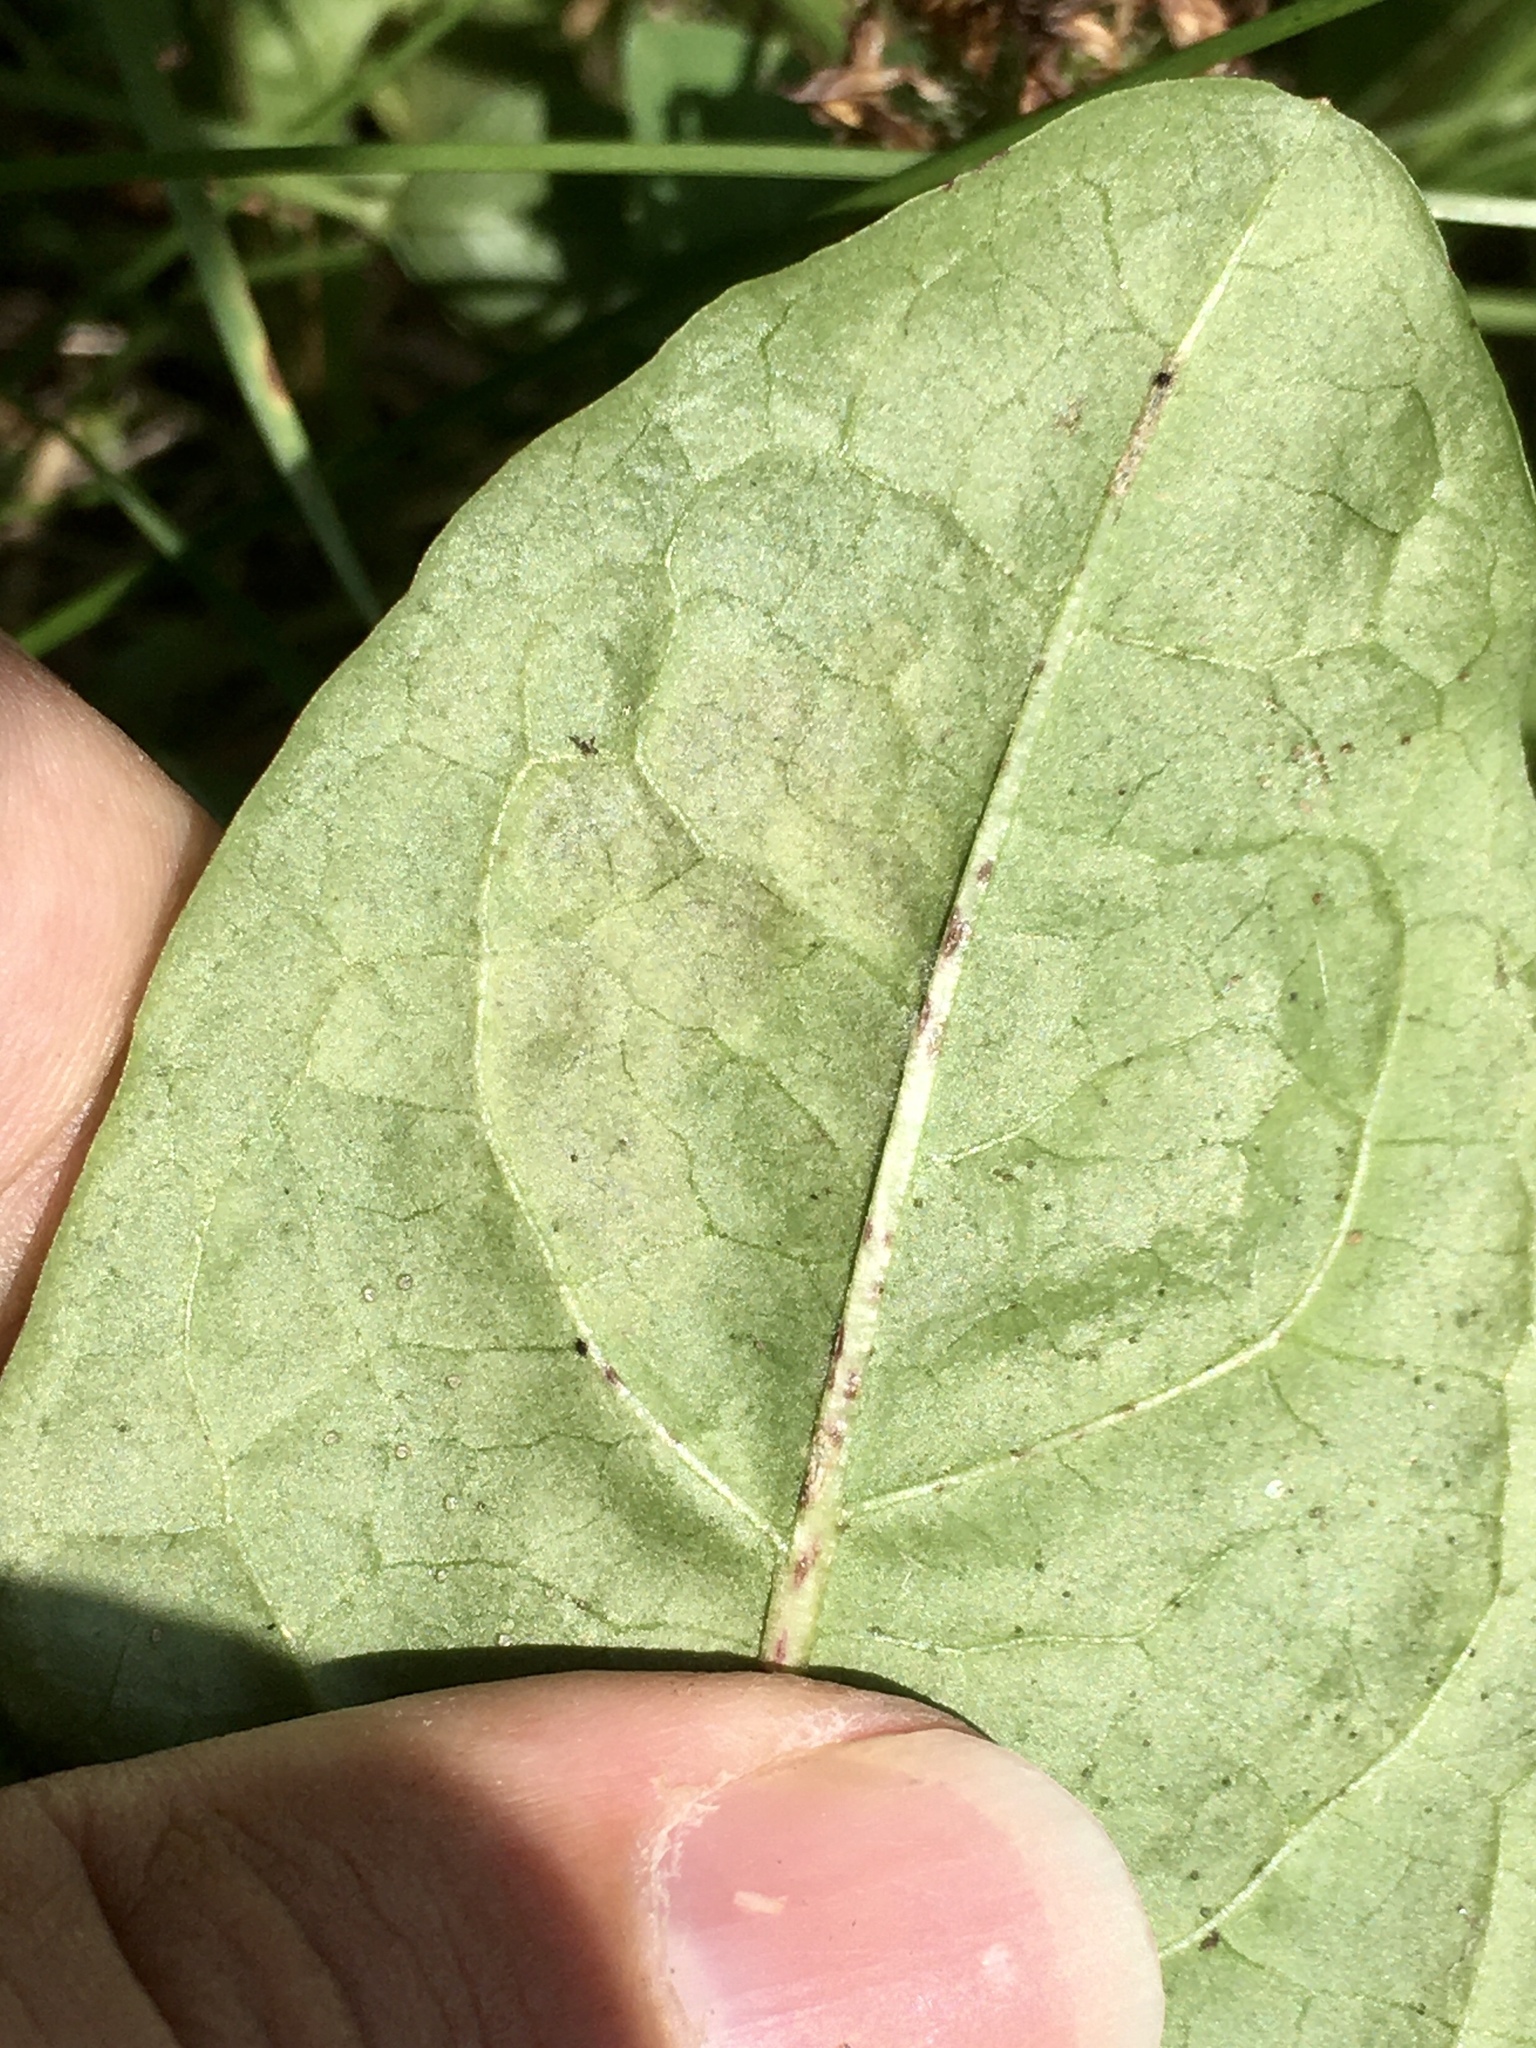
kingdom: Animalia
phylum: Arthropoda
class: Insecta
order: Diptera
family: Agromyzidae
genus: Liriomyza
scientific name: Liriomyza taraxaci
